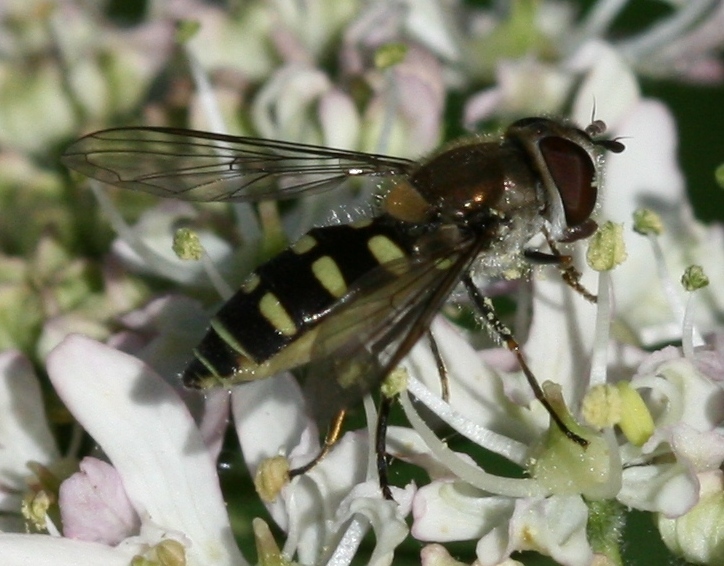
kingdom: Animalia
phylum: Arthropoda
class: Insecta
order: Diptera
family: Syrphidae
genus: Melangyna
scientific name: Melangyna labiatarum
